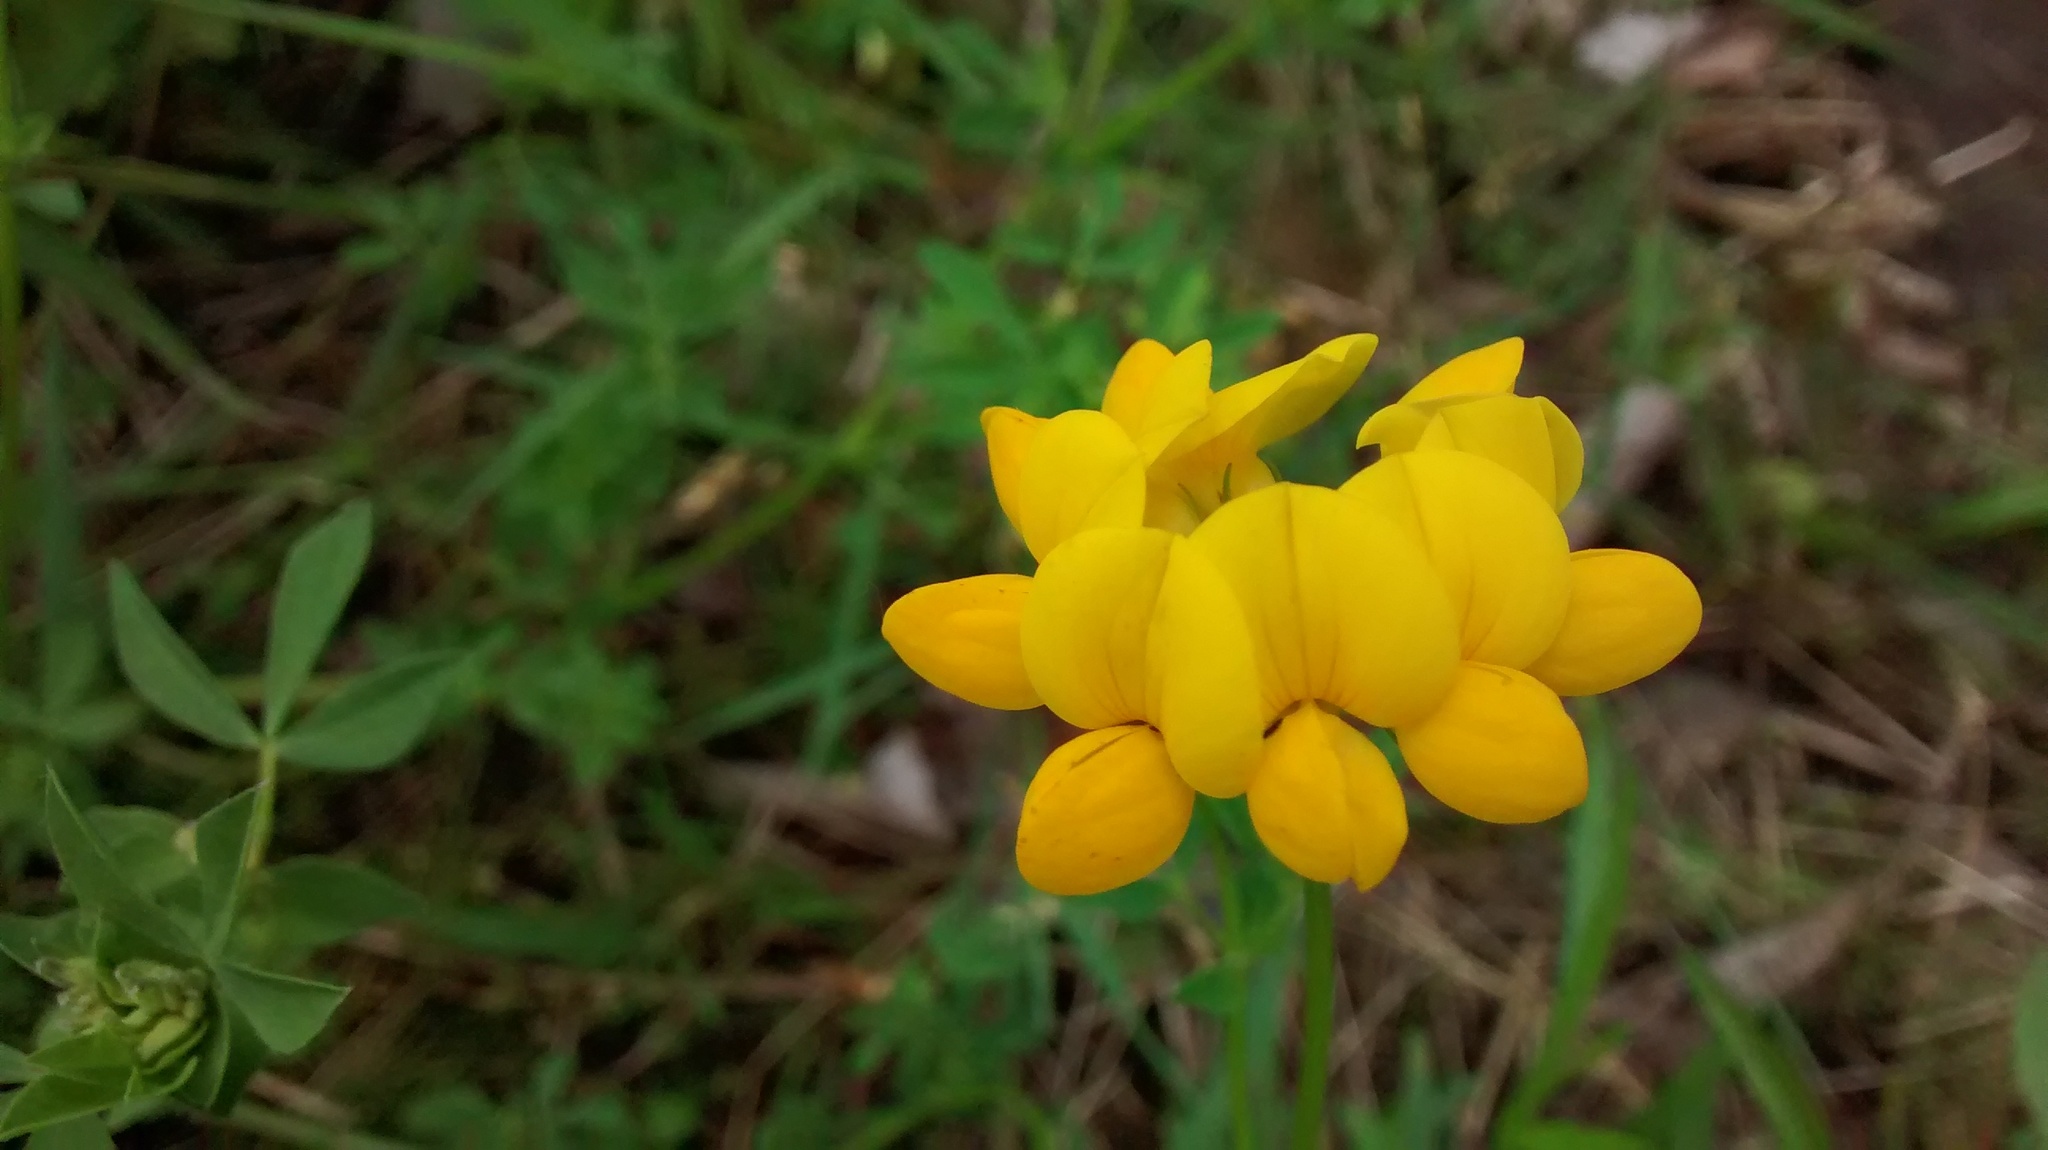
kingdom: Plantae
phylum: Tracheophyta
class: Magnoliopsida
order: Fabales
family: Fabaceae
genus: Lotus
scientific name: Lotus corniculatus
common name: Common bird's-foot-trefoil
